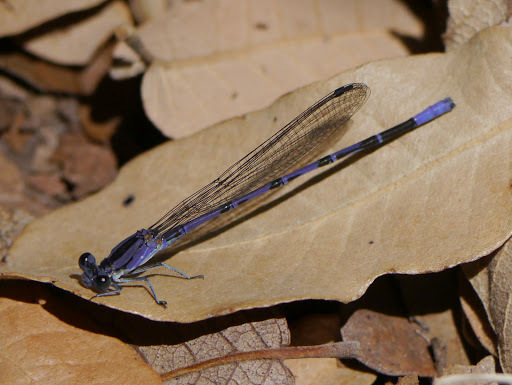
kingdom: Animalia
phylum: Arthropoda
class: Insecta
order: Odonata
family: Coenagrionidae
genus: Argia
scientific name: Argia funebris
